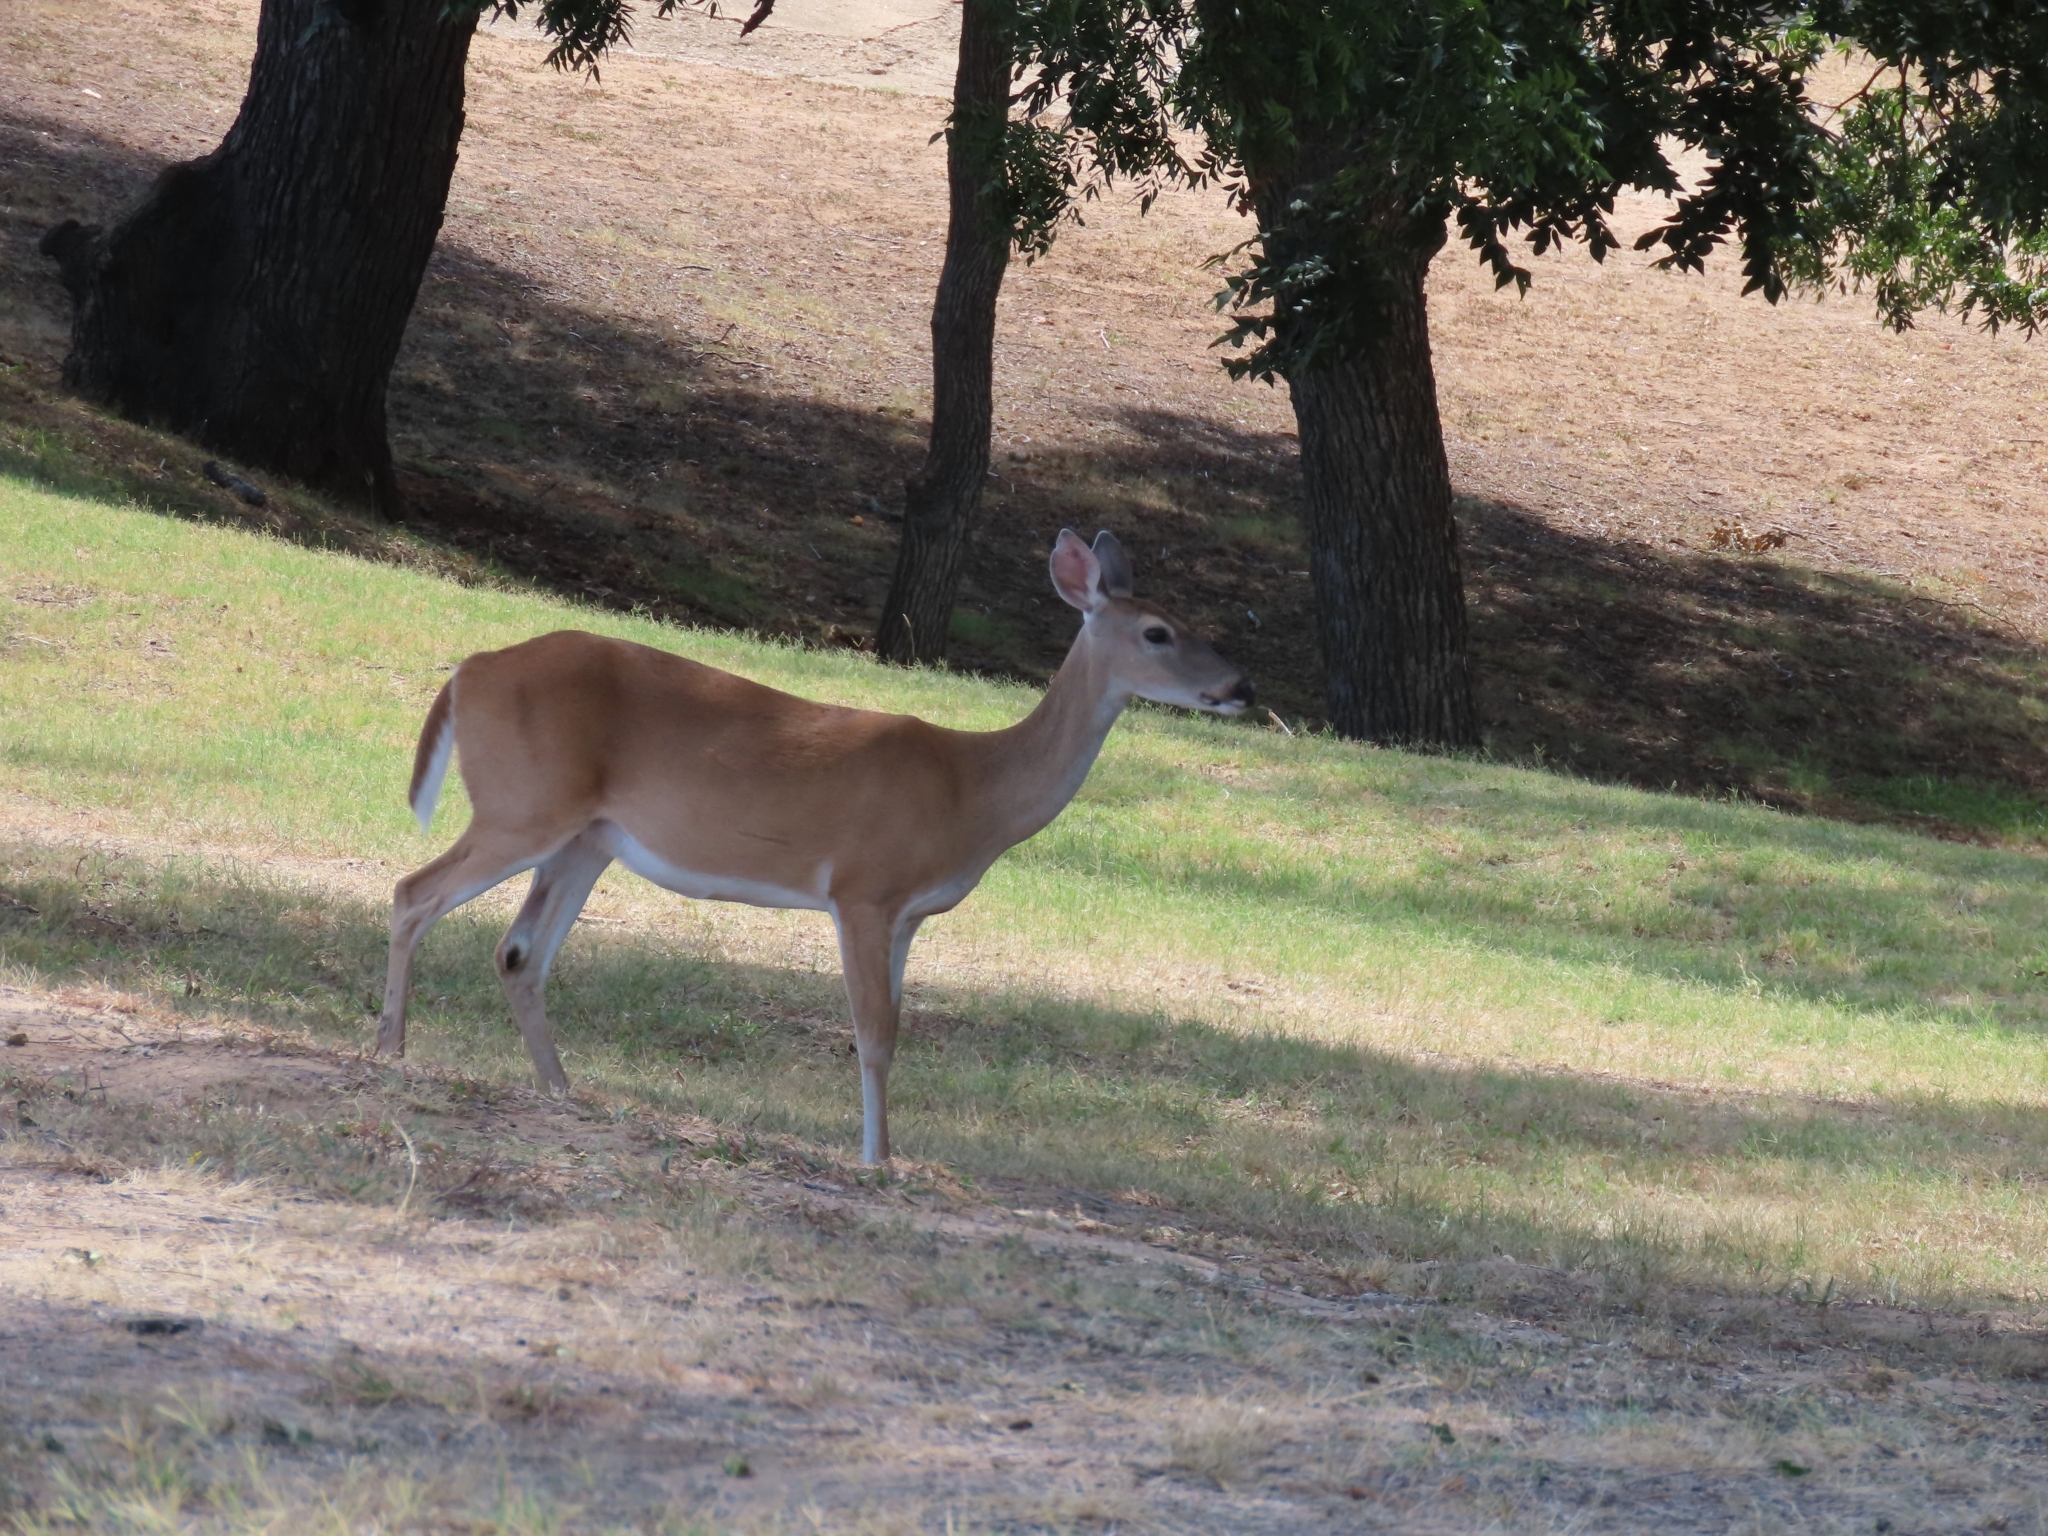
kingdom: Animalia
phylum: Chordata
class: Mammalia
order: Artiodactyla
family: Cervidae
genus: Odocoileus
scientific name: Odocoileus virginianus
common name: White-tailed deer
